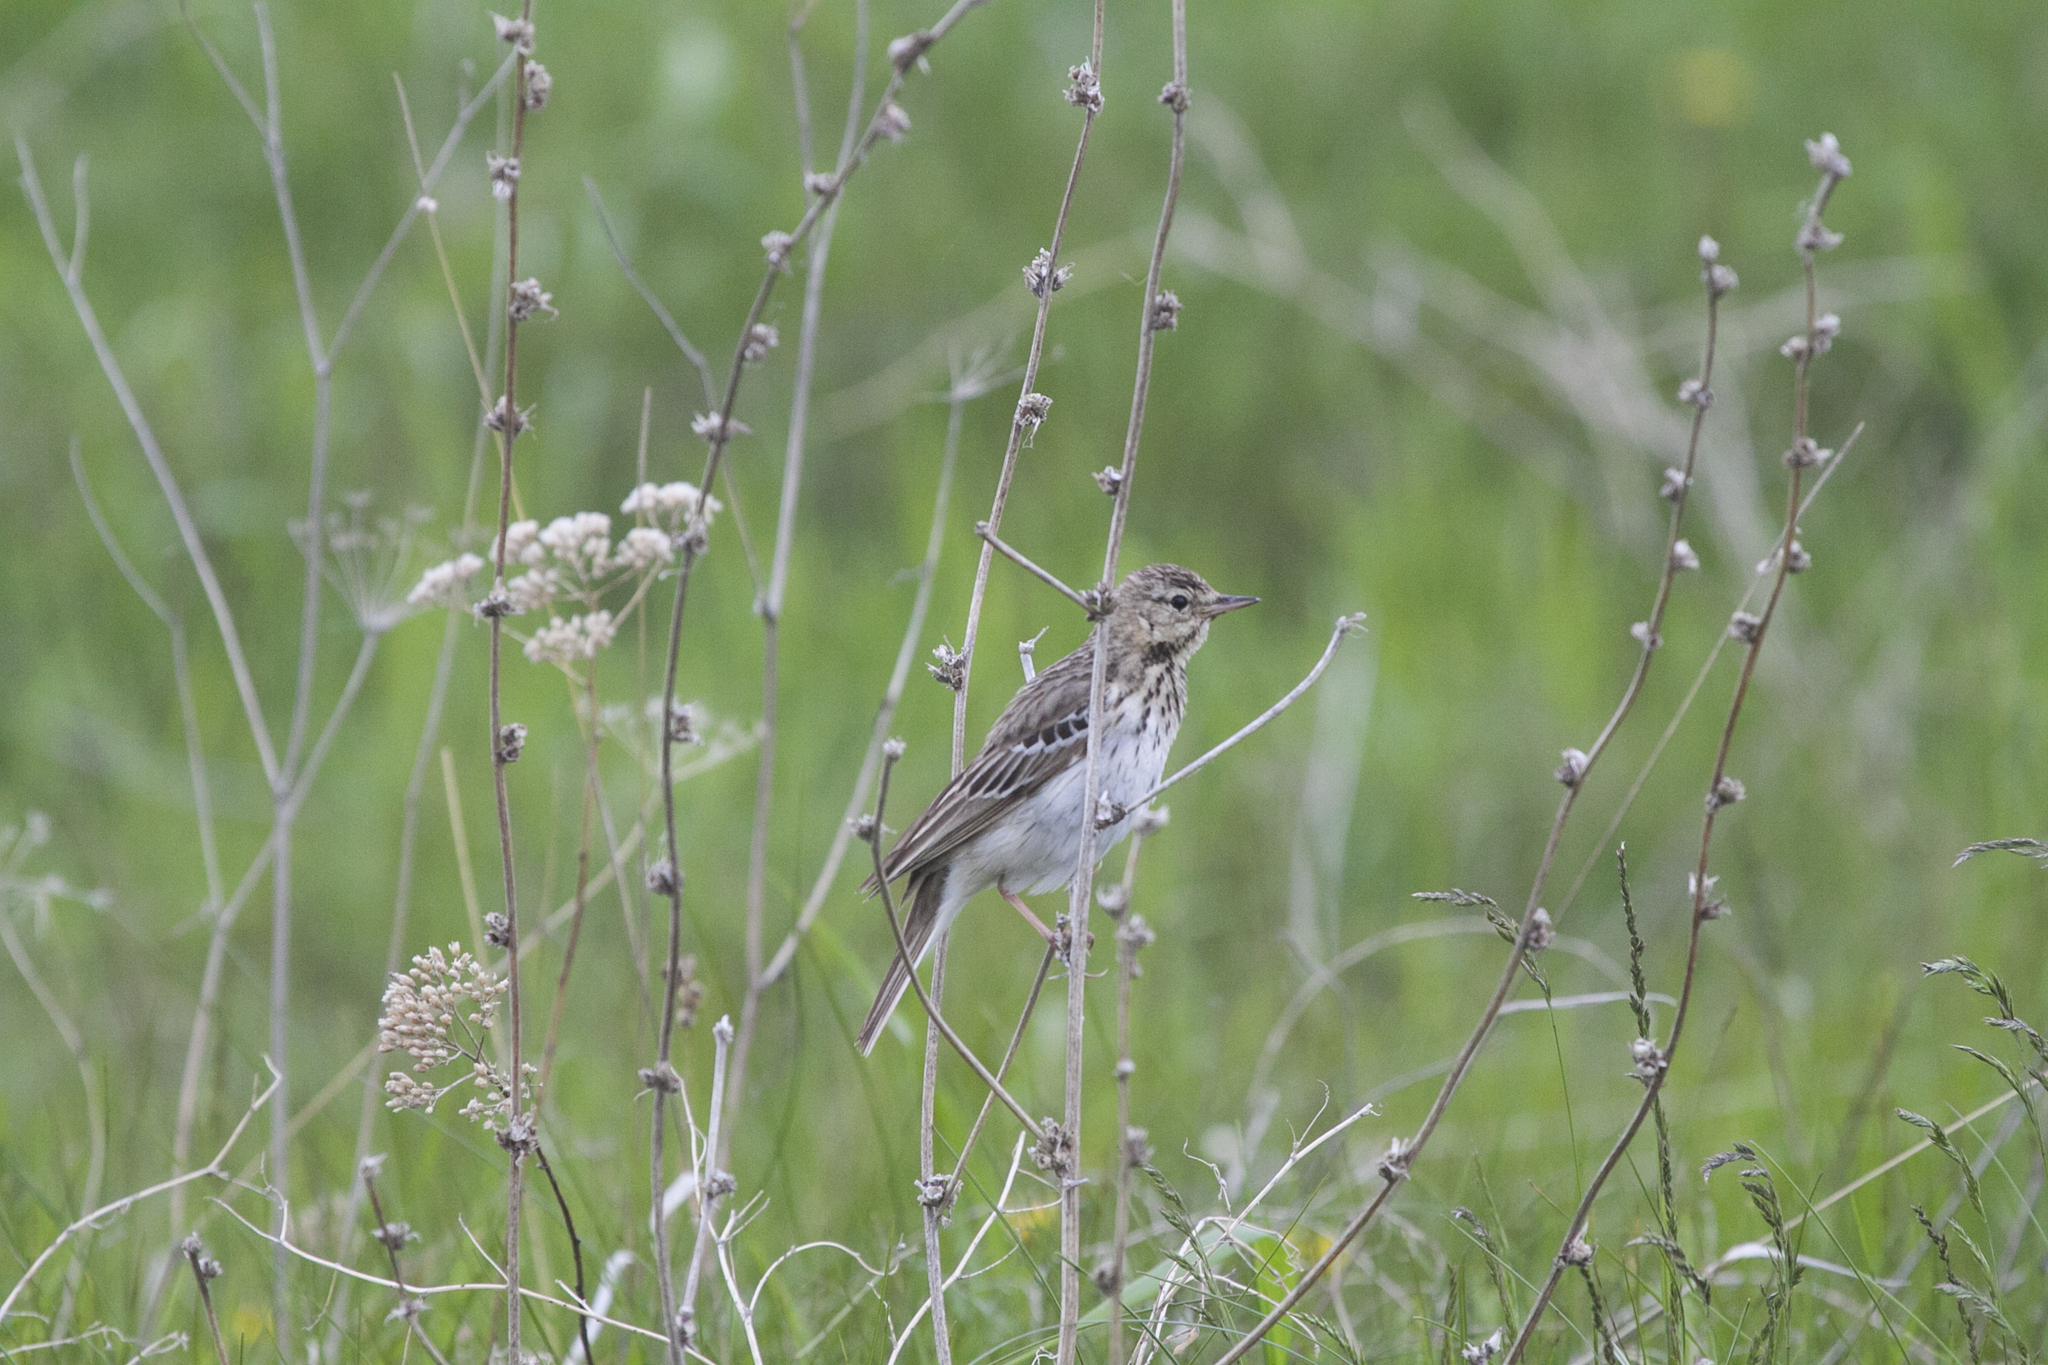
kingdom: Animalia
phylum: Chordata
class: Aves
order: Passeriformes
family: Motacillidae
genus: Anthus
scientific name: Anthus trivialis
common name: Tree pipit
